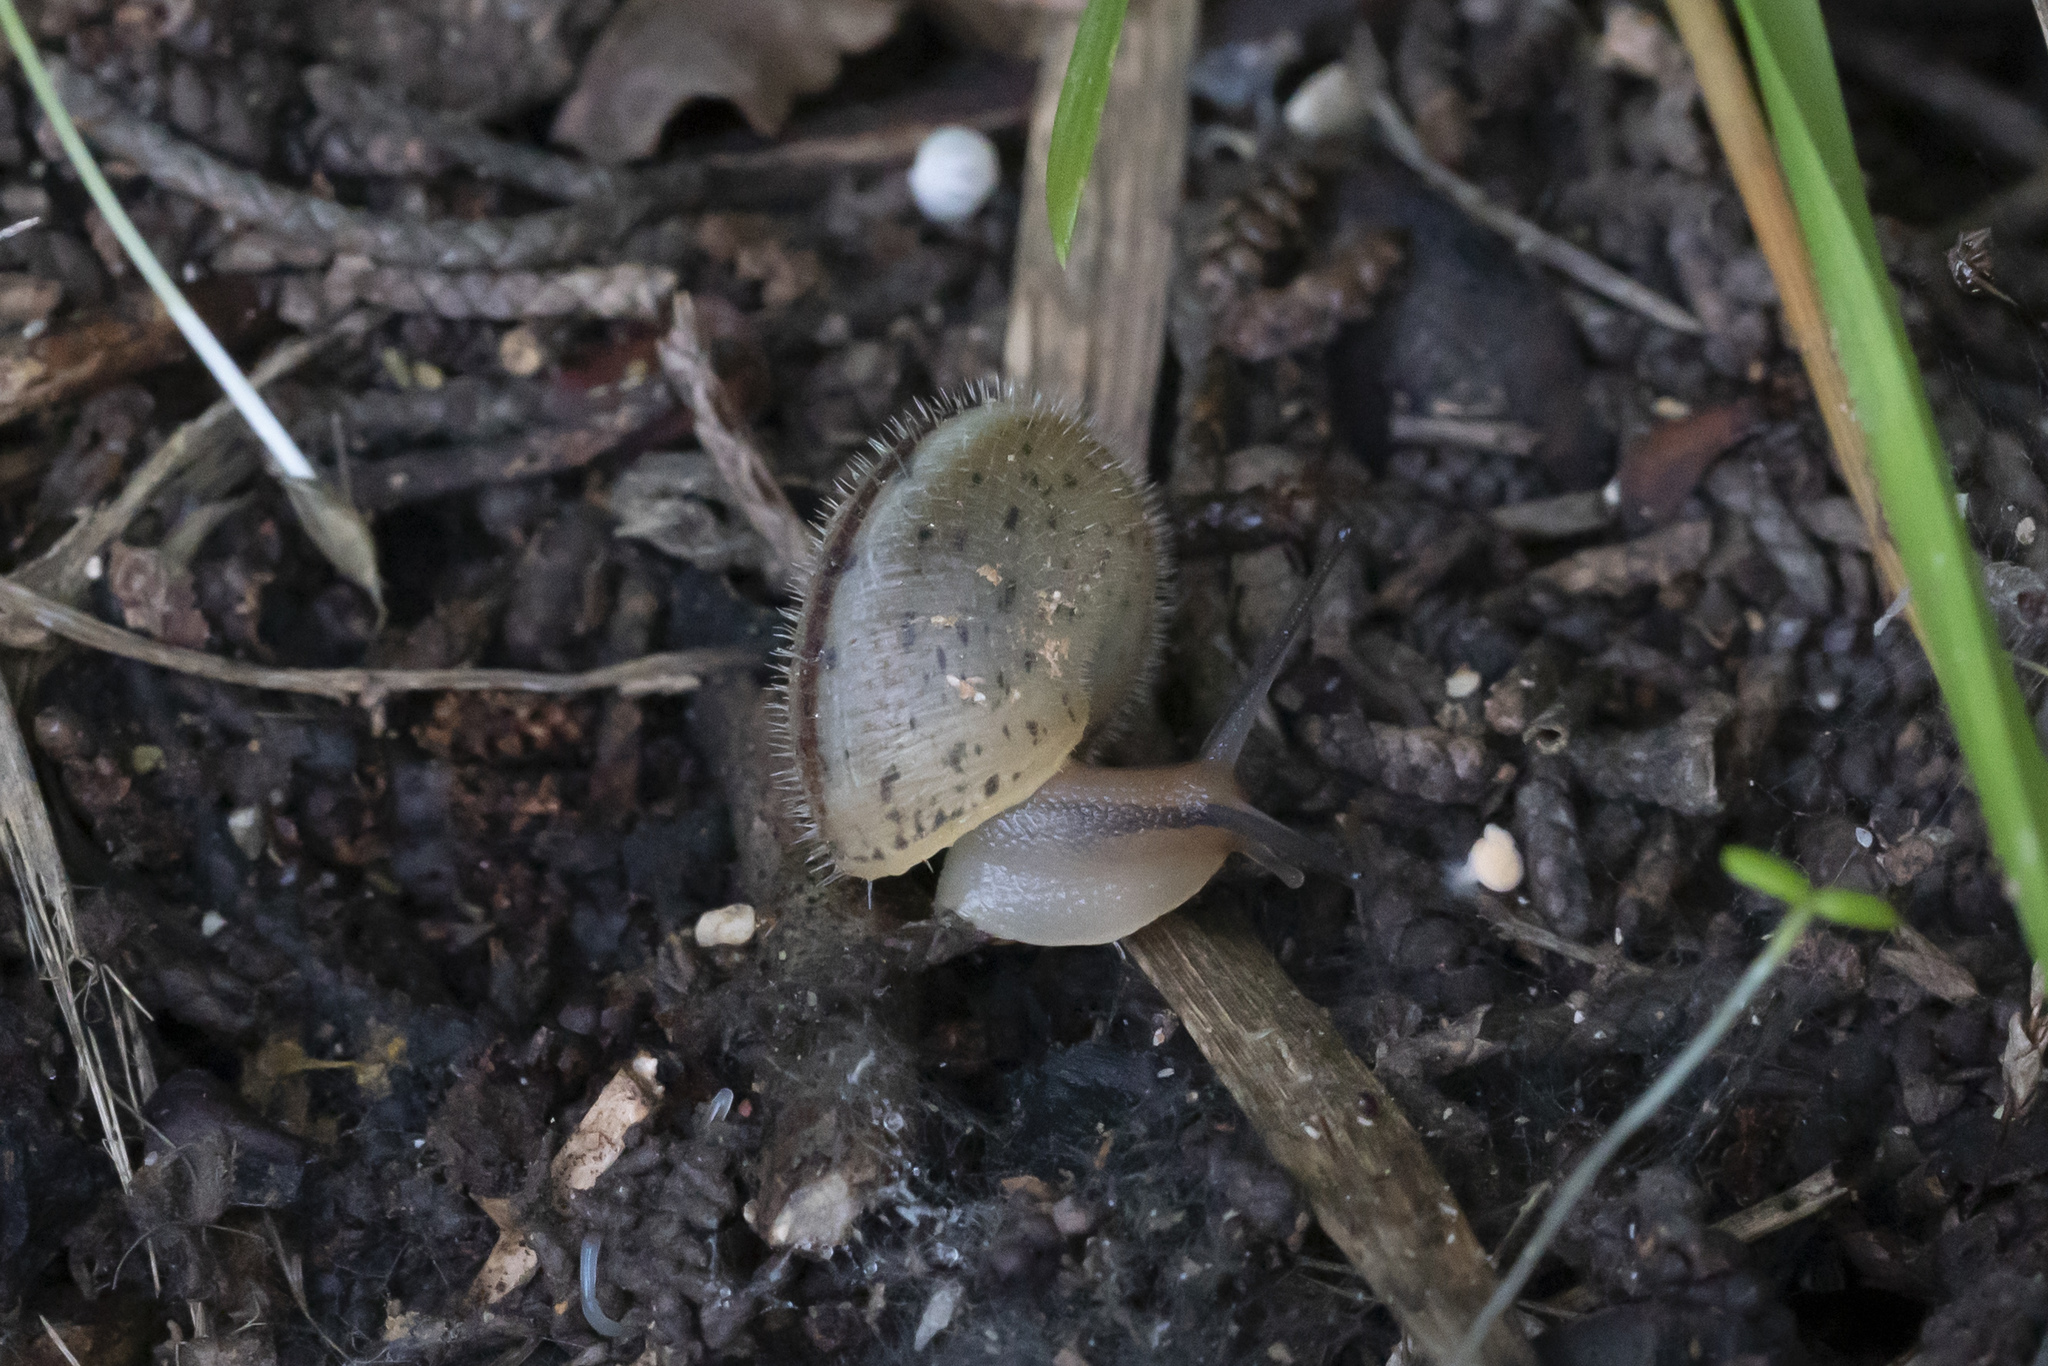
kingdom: Animalia
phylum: Mollusca
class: Gastropoda
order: Stylommatophora
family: Hygromiidae
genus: Metafruticicola
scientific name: Metafruticicola pellita
